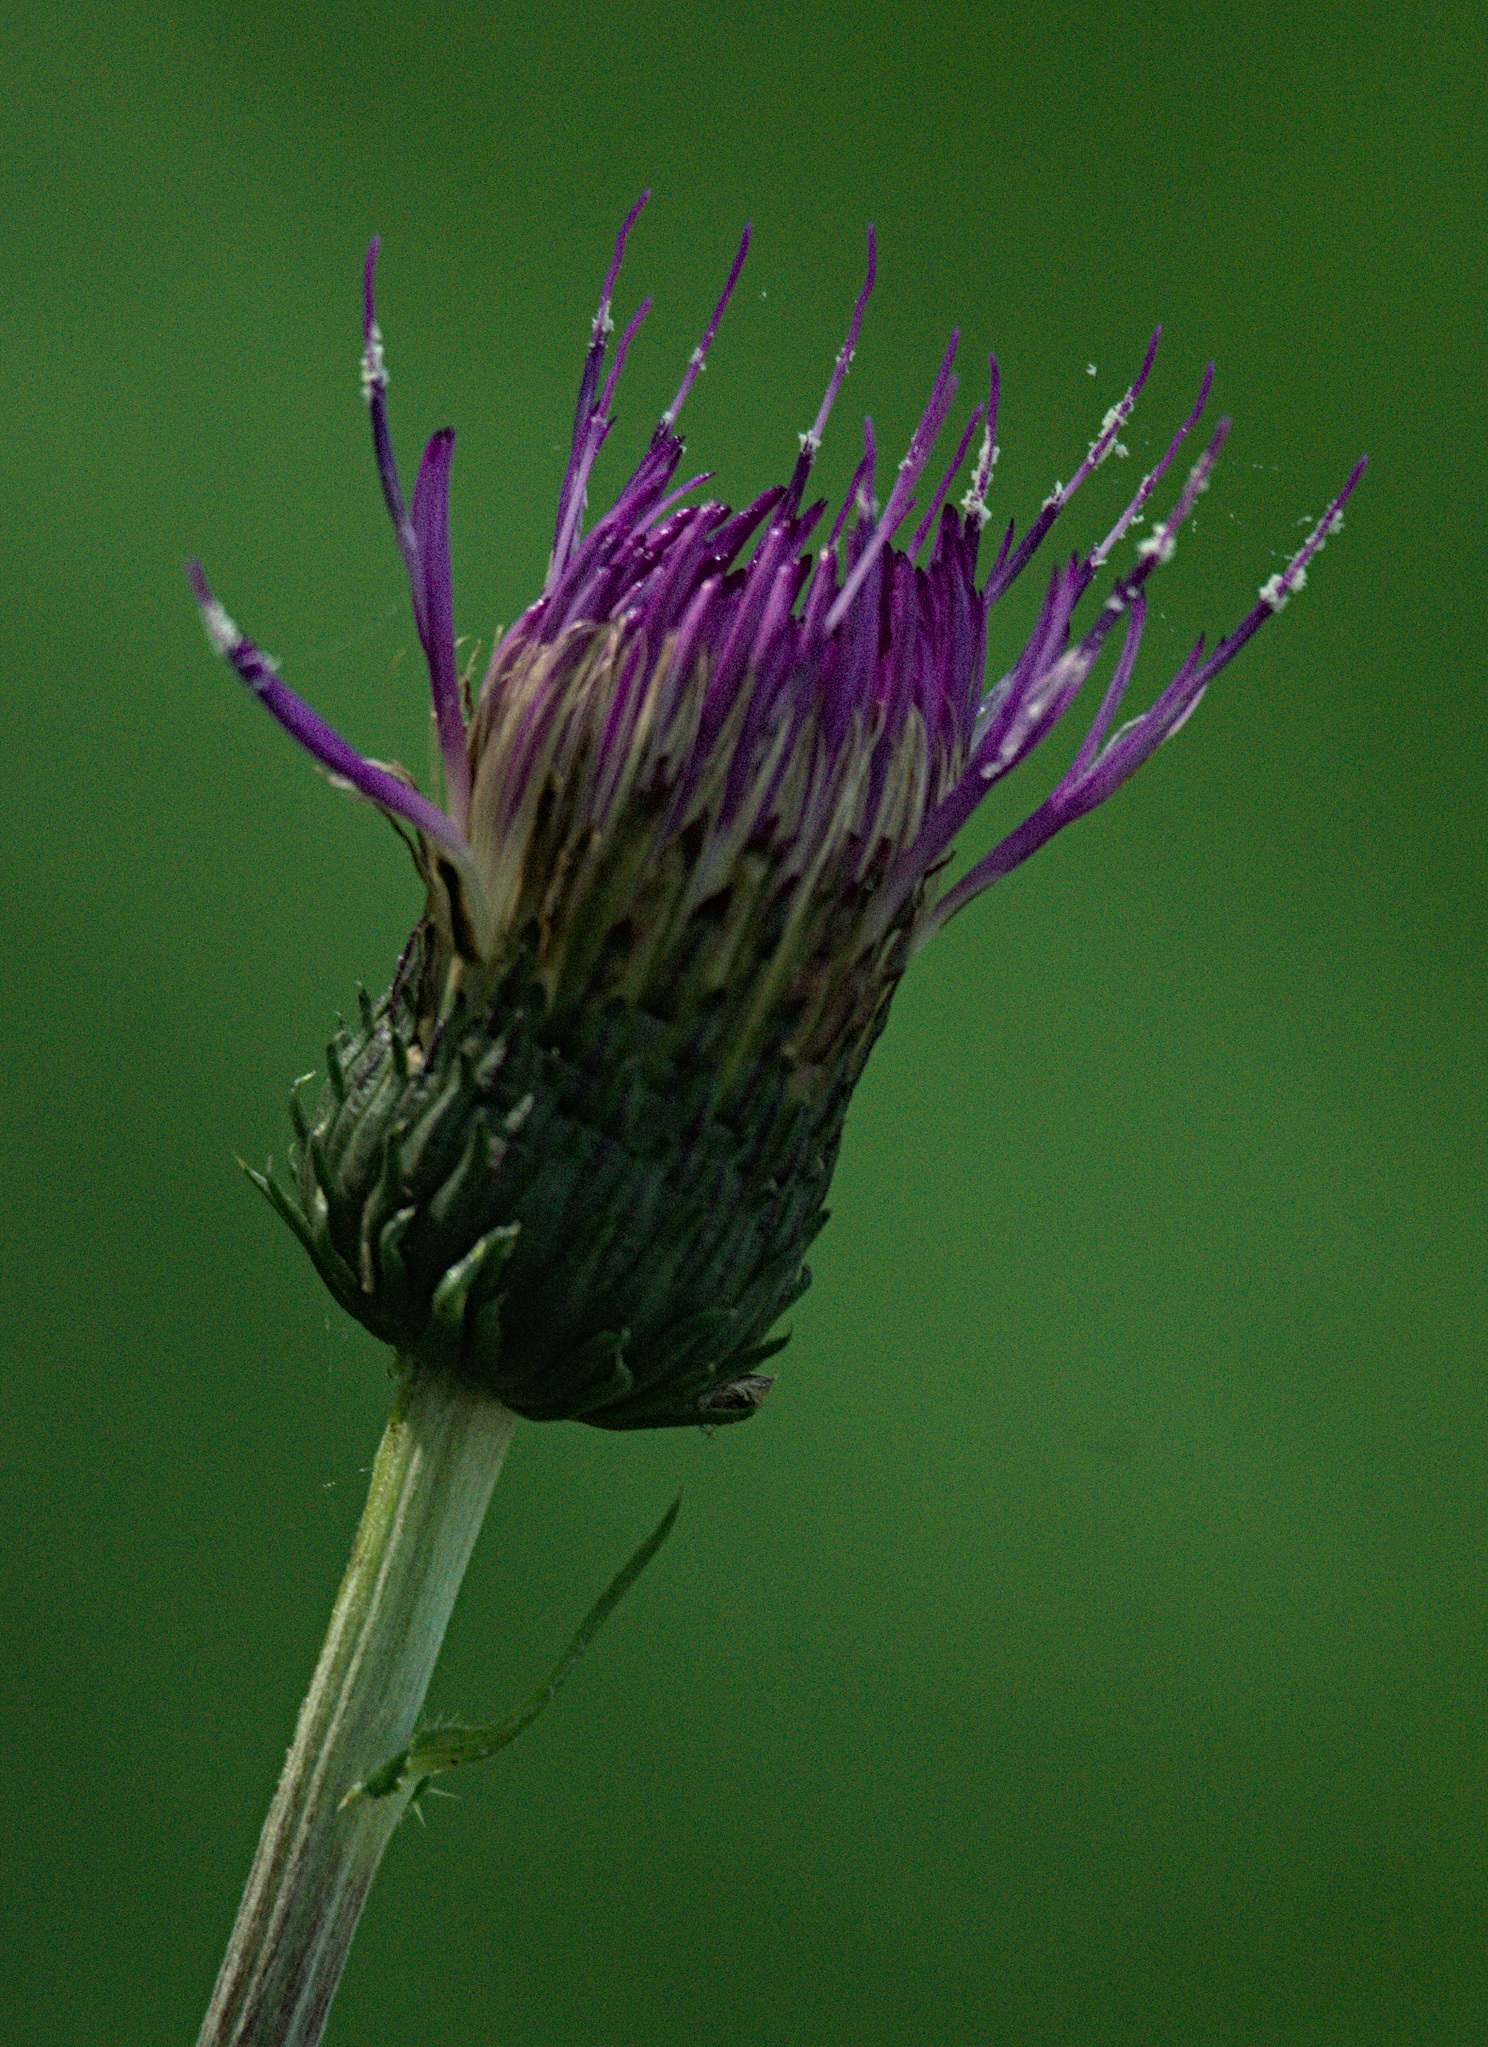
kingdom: Plantae
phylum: Tracheophyta
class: Magnoliopsida
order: Asterales
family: Asteraceae
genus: Cirsium
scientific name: Cirsium heterophyllum
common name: Melancholy thistle
